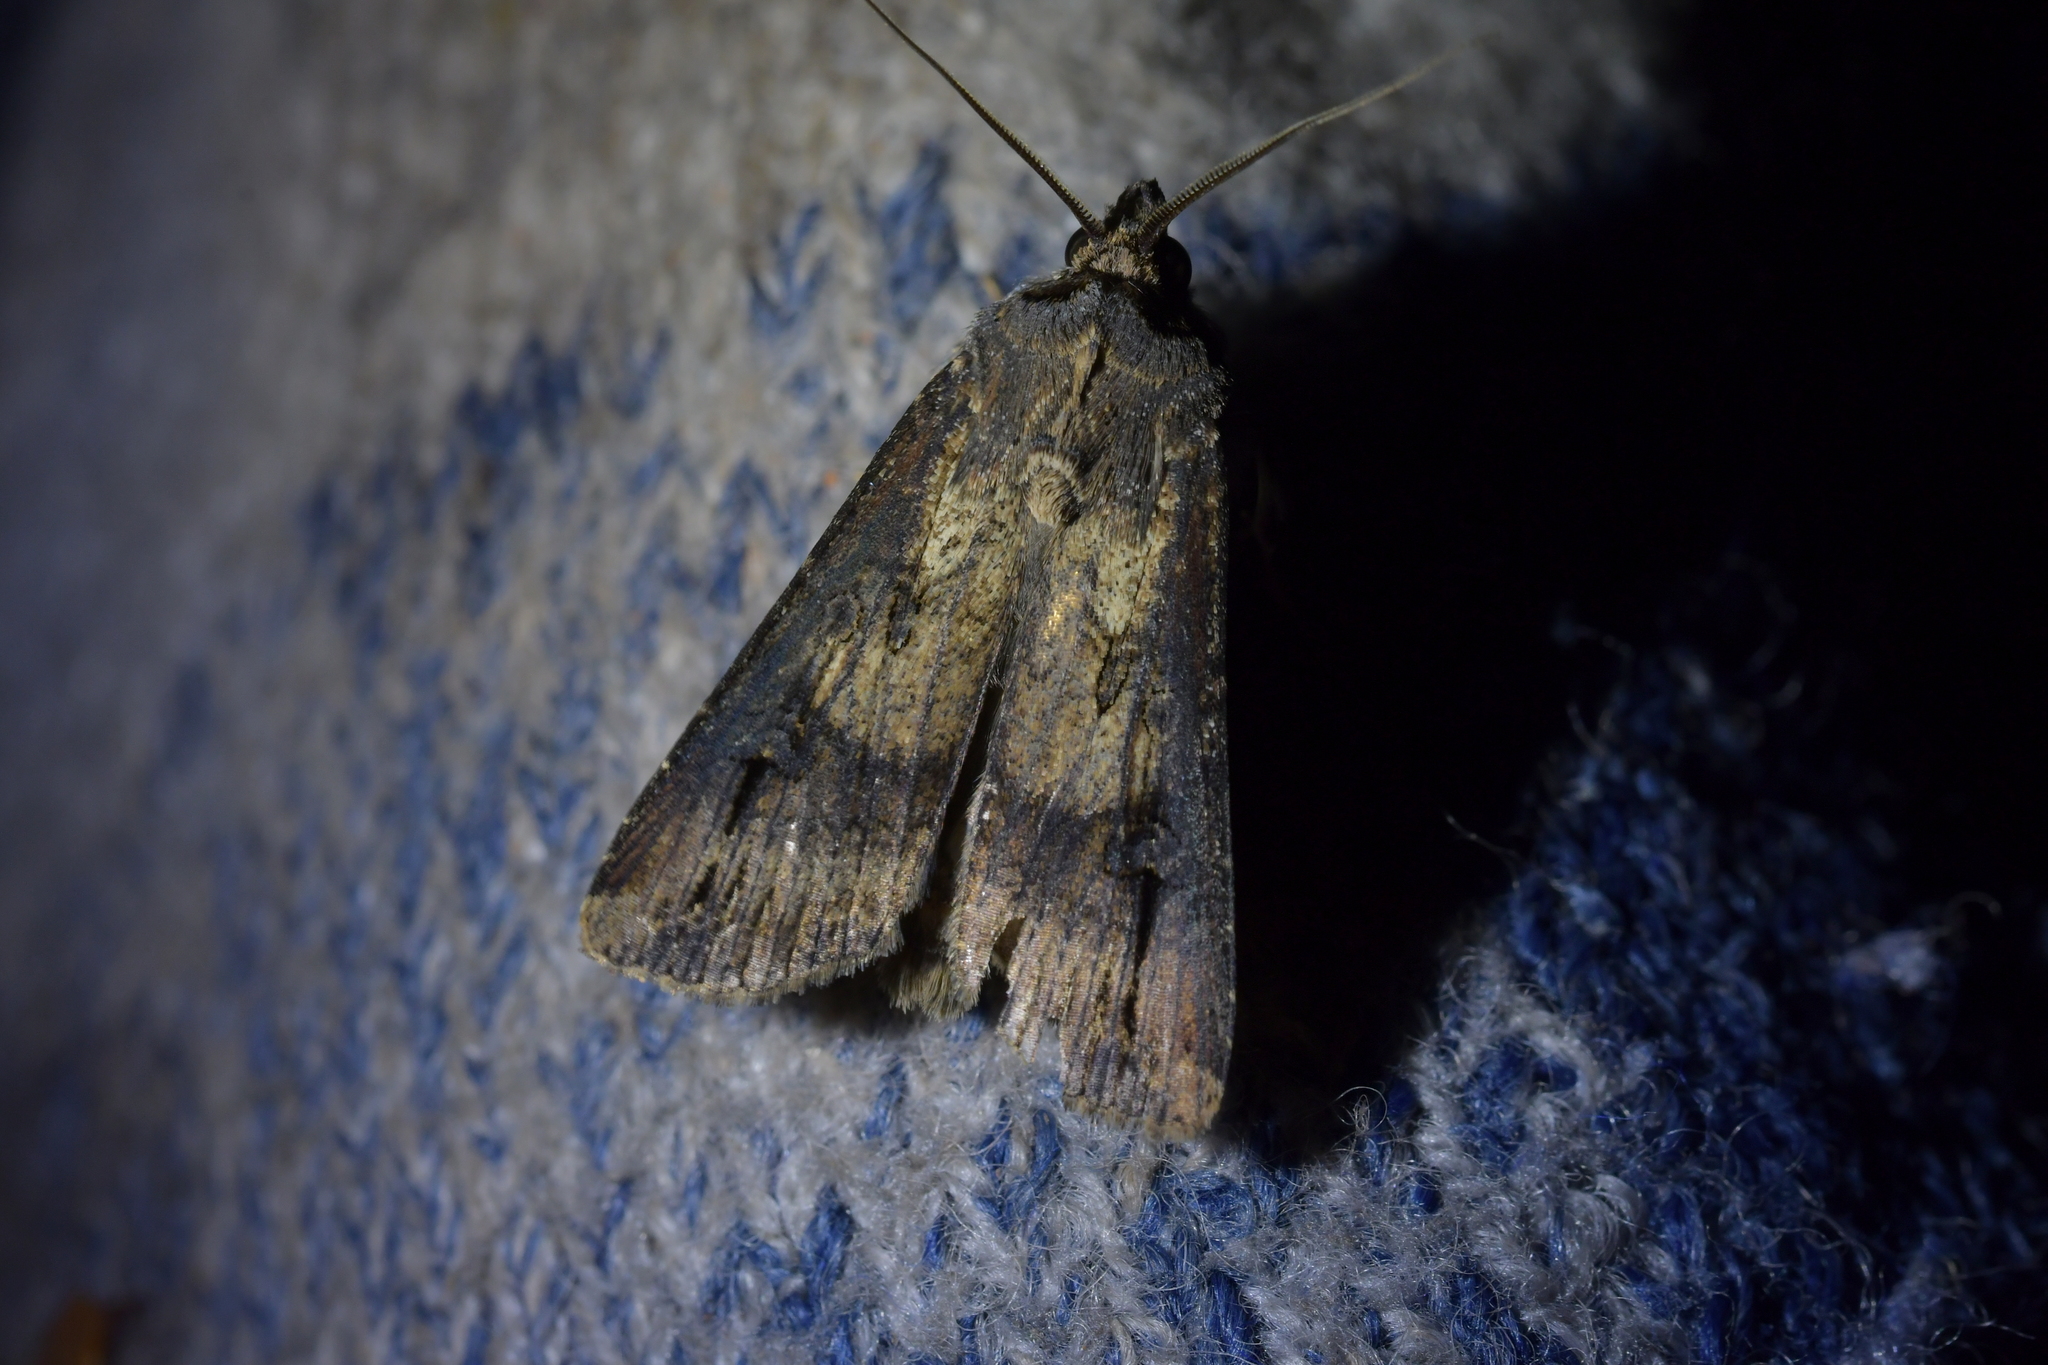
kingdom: Animalia
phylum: Arthropoda
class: Insecta
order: Lepidoptera
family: Noctuidae
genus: Agrotis
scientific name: Agrotis ipsilon
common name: Dark sword-grass
